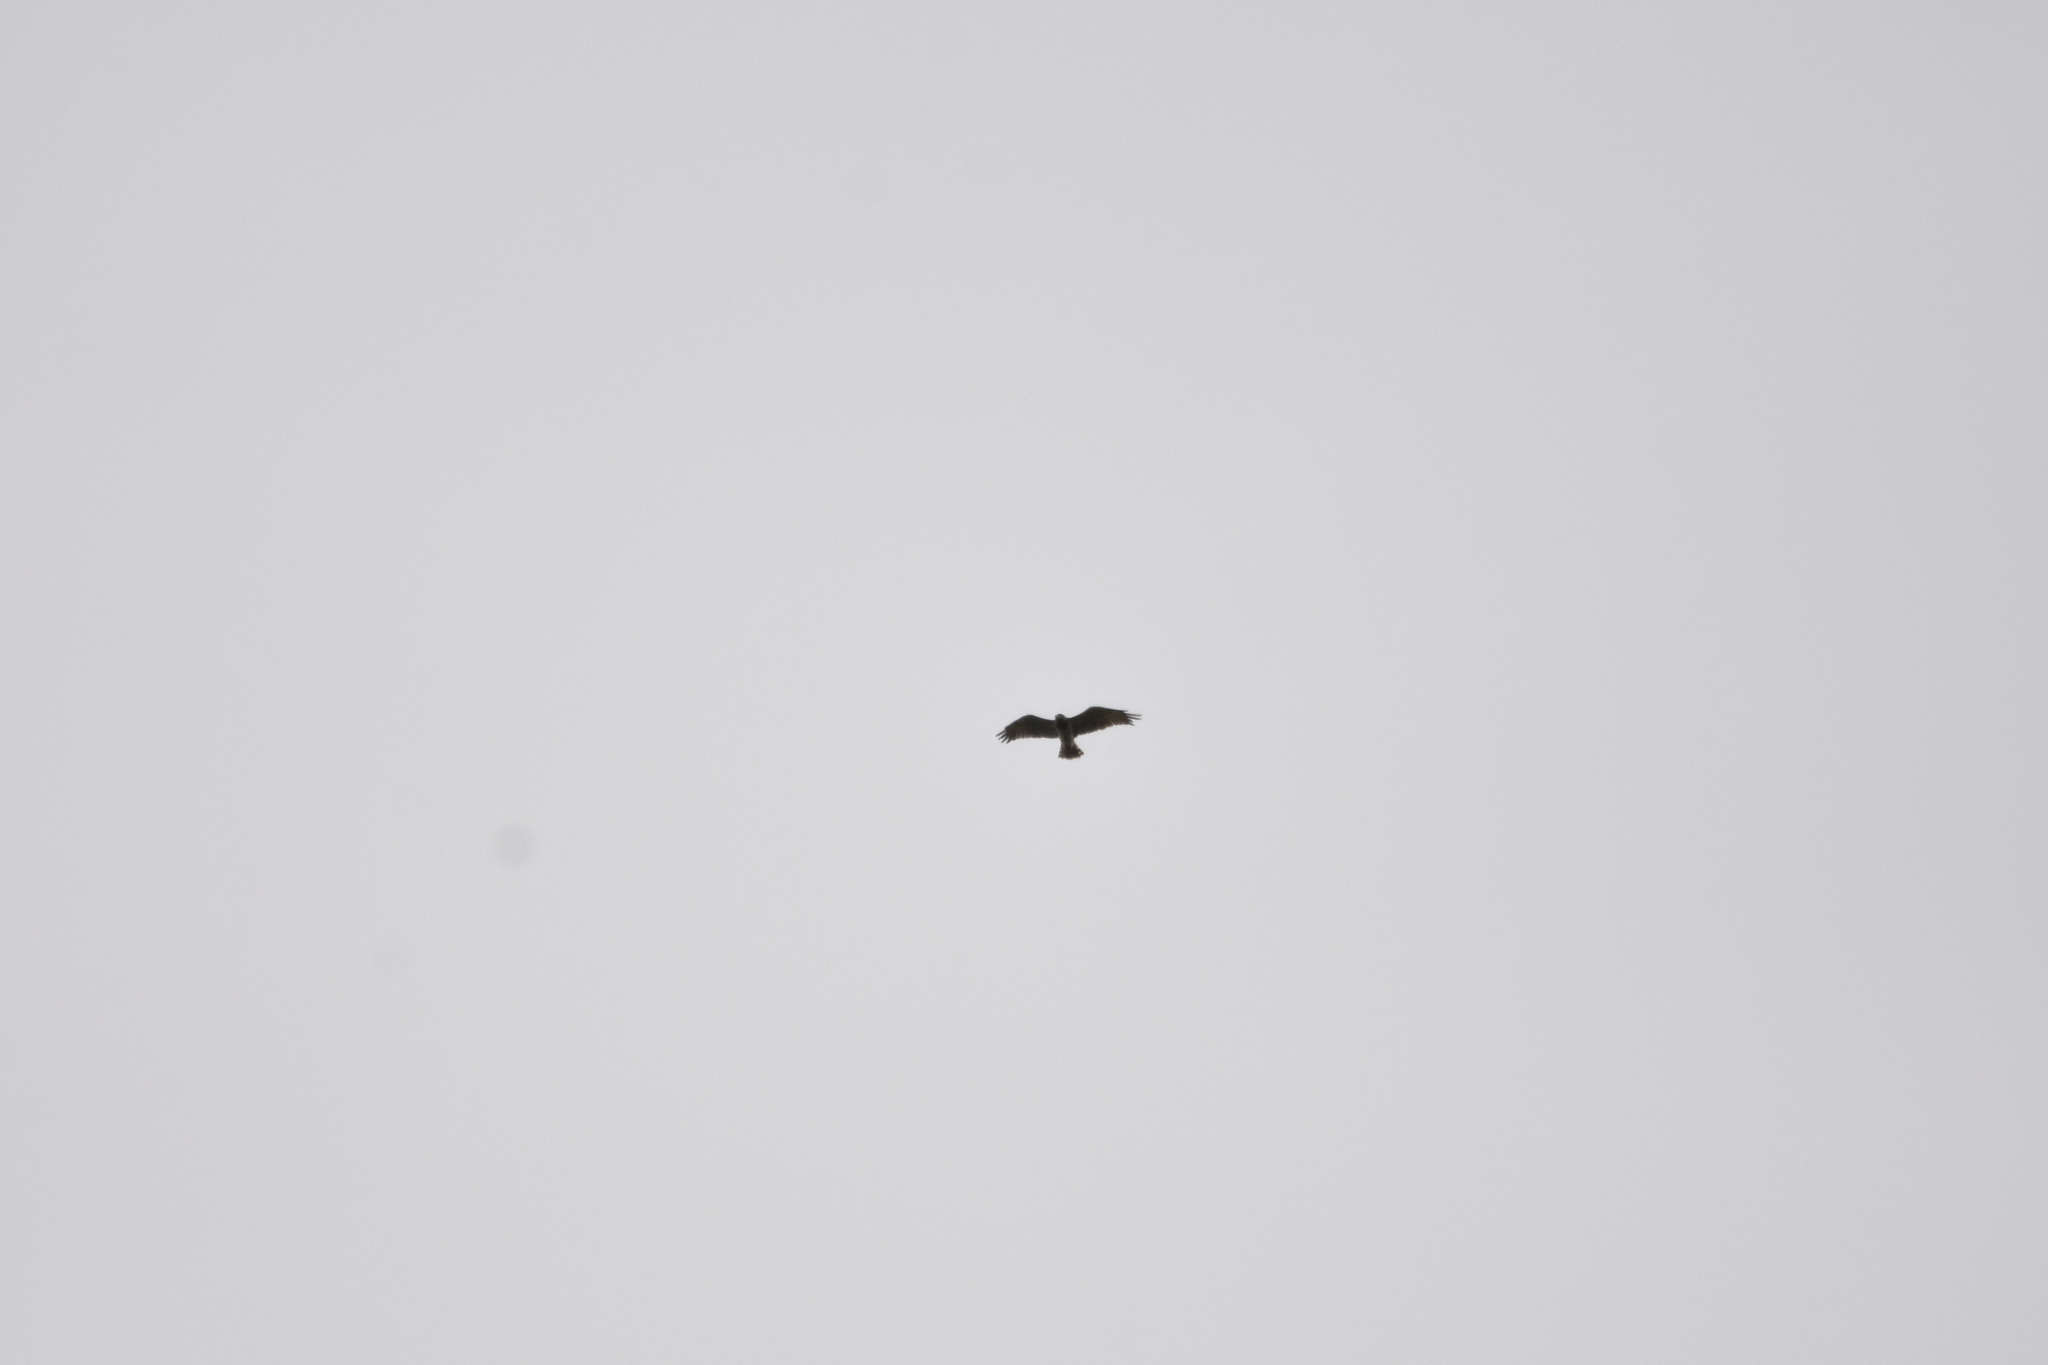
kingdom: Animalia
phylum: Chordata
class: Aves
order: Accipitriformes
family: Accipitridae
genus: Circaetus
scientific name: Circaetus gallicus
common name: Short-toed snake eagle
